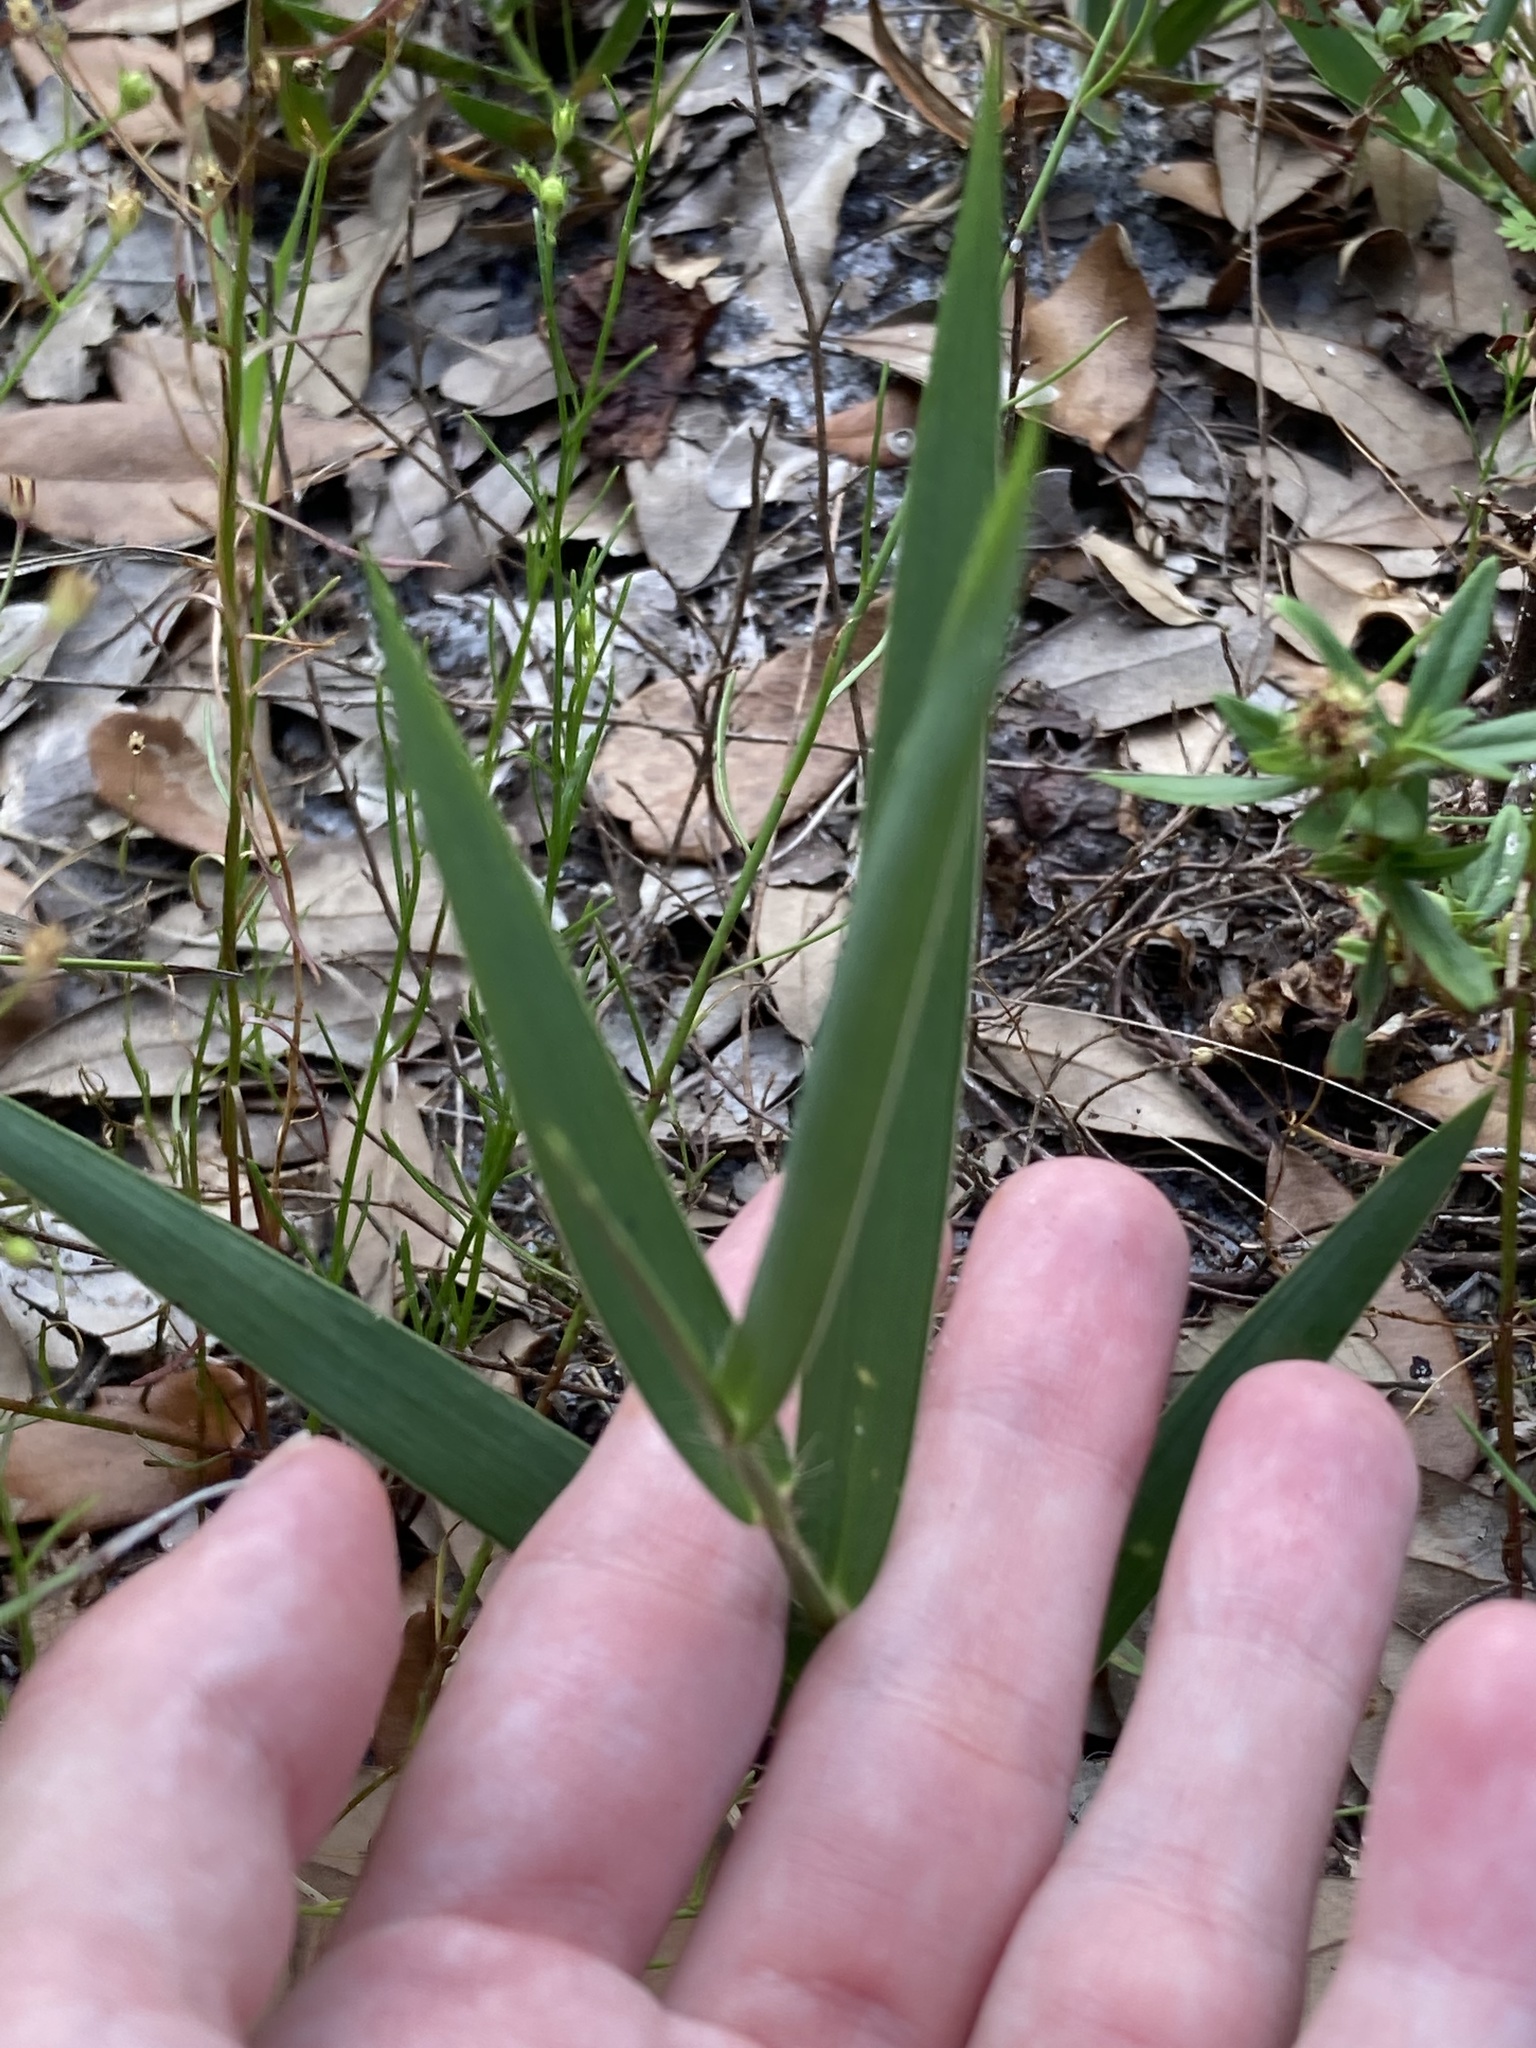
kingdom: Plantae
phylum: Tracheophyta
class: Liliopsida
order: Poales
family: Poaceae
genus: Amphicarpum
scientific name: Amphicarpum muehlenbergianum
